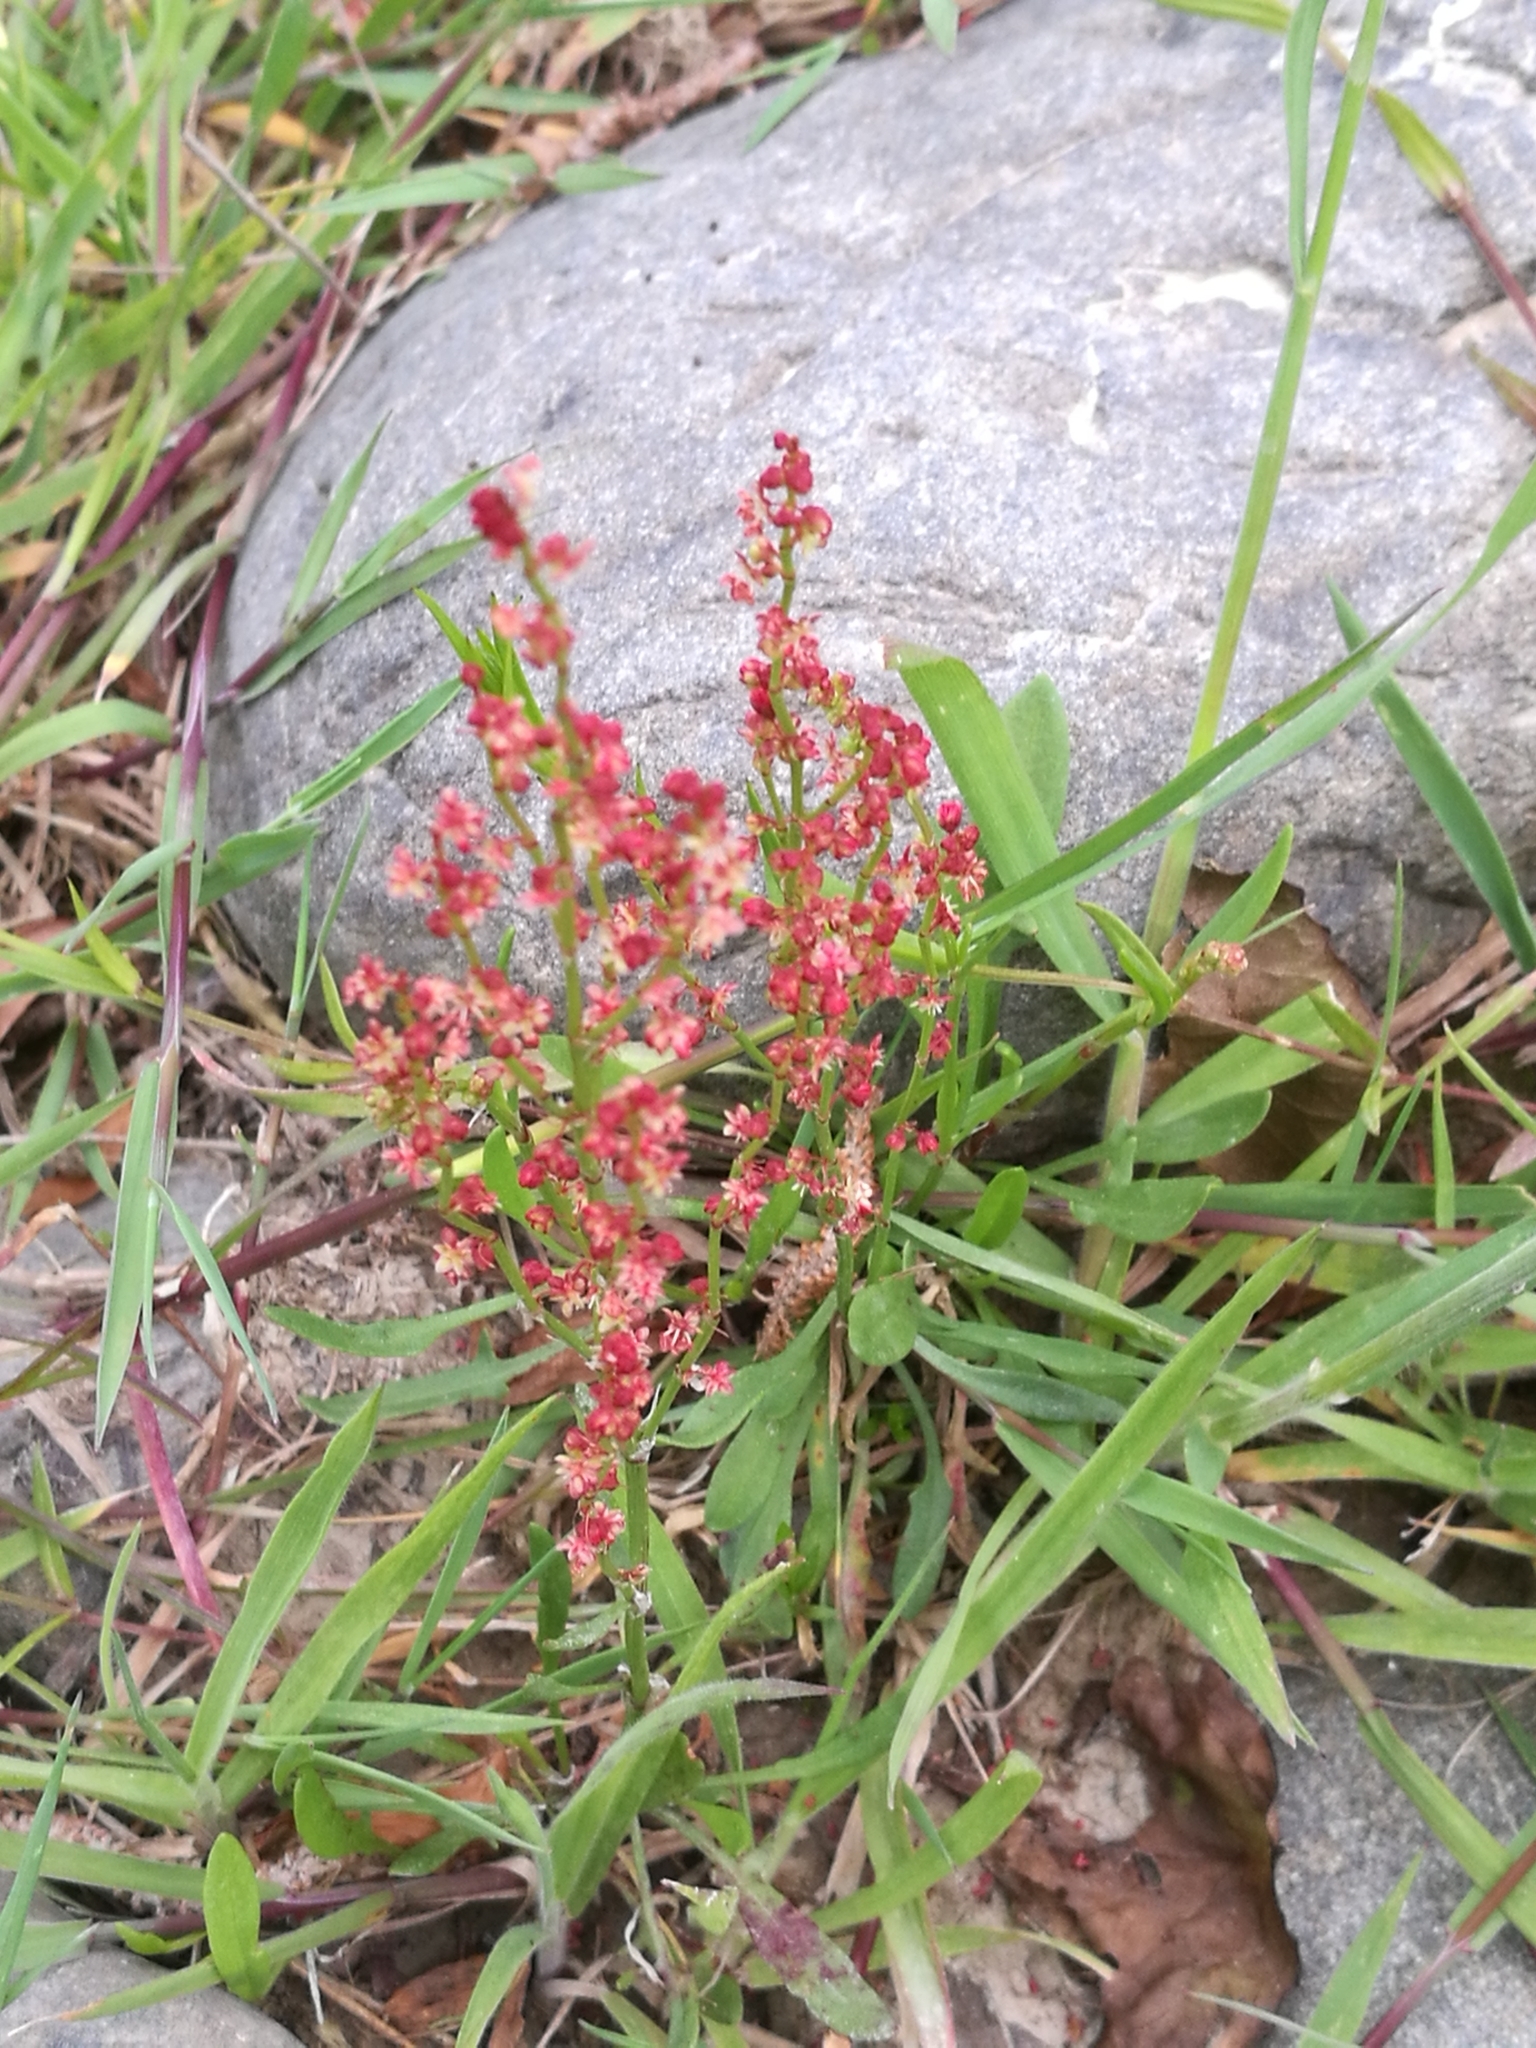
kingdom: Plantae
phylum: Tracheophyta
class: Magnoliopsida
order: Caryophyllales
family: Polygonaceae
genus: Rumex
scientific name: Rumex acetosella
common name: Common sheep sorrel
